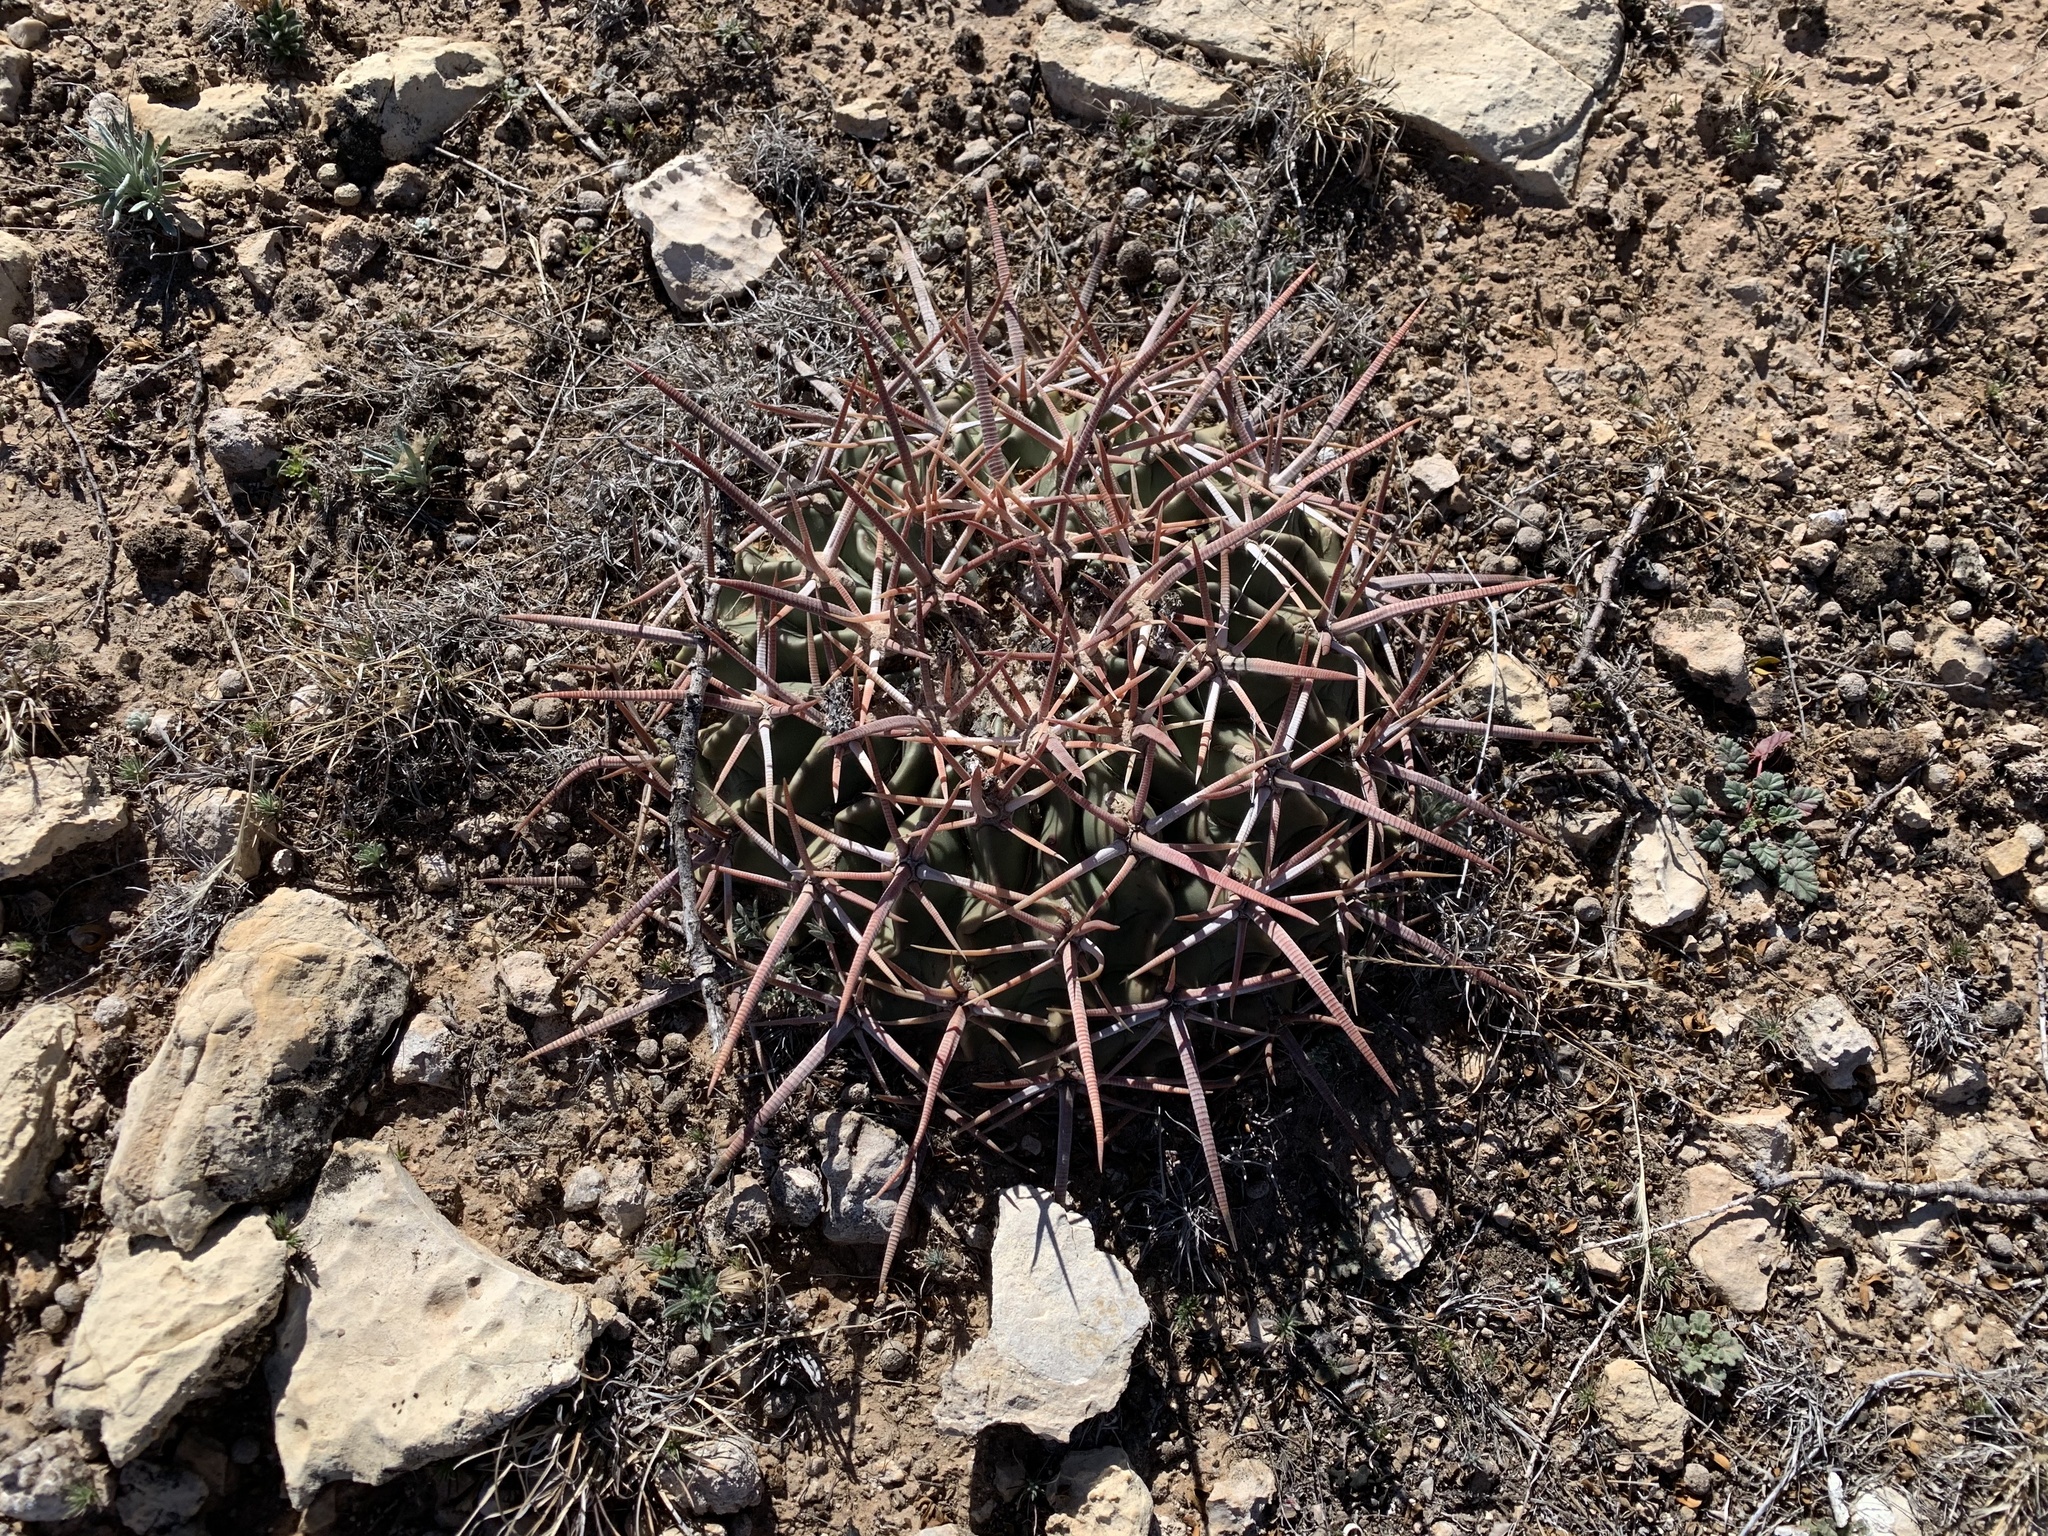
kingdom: Plantae
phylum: Tracheophyta
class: Magnoliopsida
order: Caryophyllales
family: Cactaceae
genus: Echinocactus
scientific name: Echinocactus texensis
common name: Devil's pincushion
